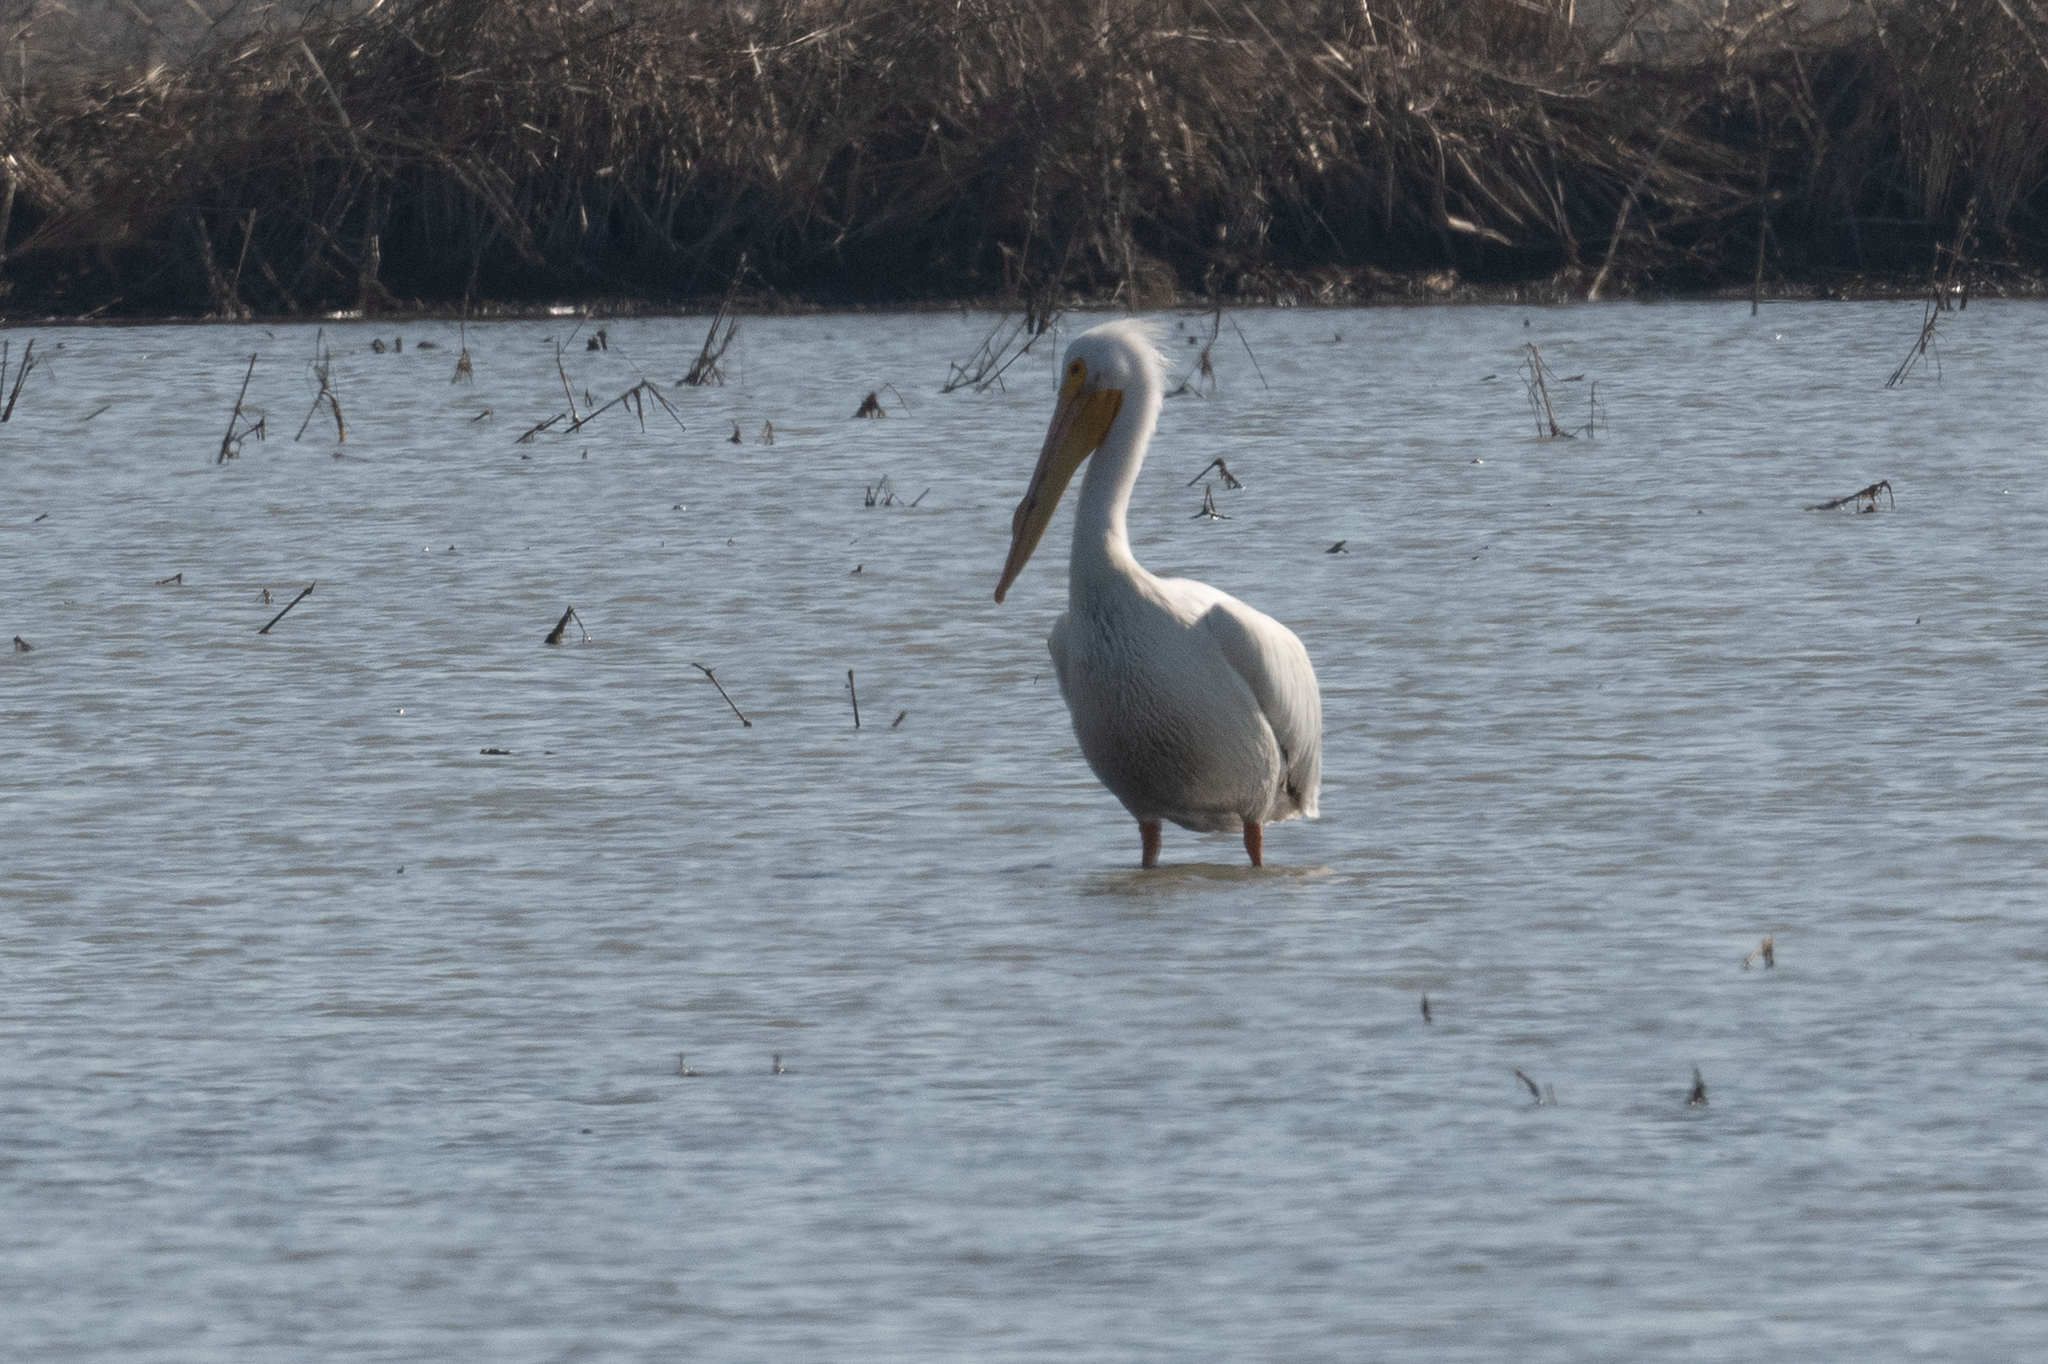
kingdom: Animalia
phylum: Chordata
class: Aves
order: Pelecaniformes
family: Pelecanidae
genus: Pelecanus
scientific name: Pelecanus erythrorhynchos
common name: American white pelican
